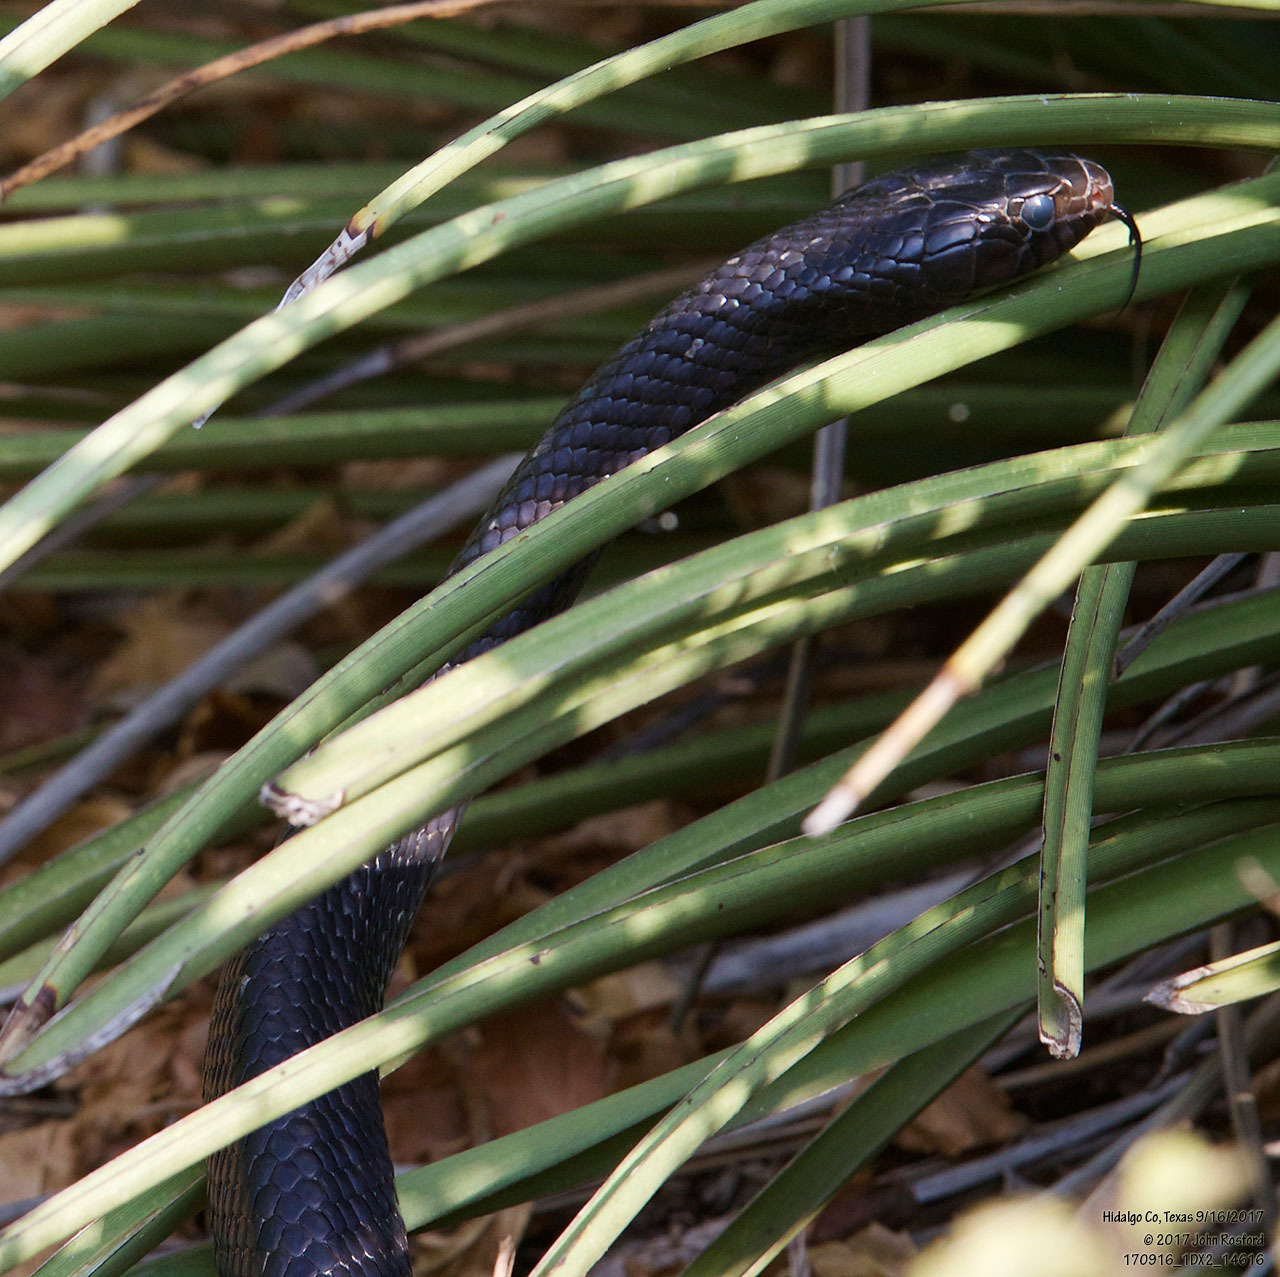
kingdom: Animalia
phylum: Chordata
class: Squamata
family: Colubridae
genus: Drymarchon
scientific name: Drymarchon melanurus
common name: Central american indigo snake
